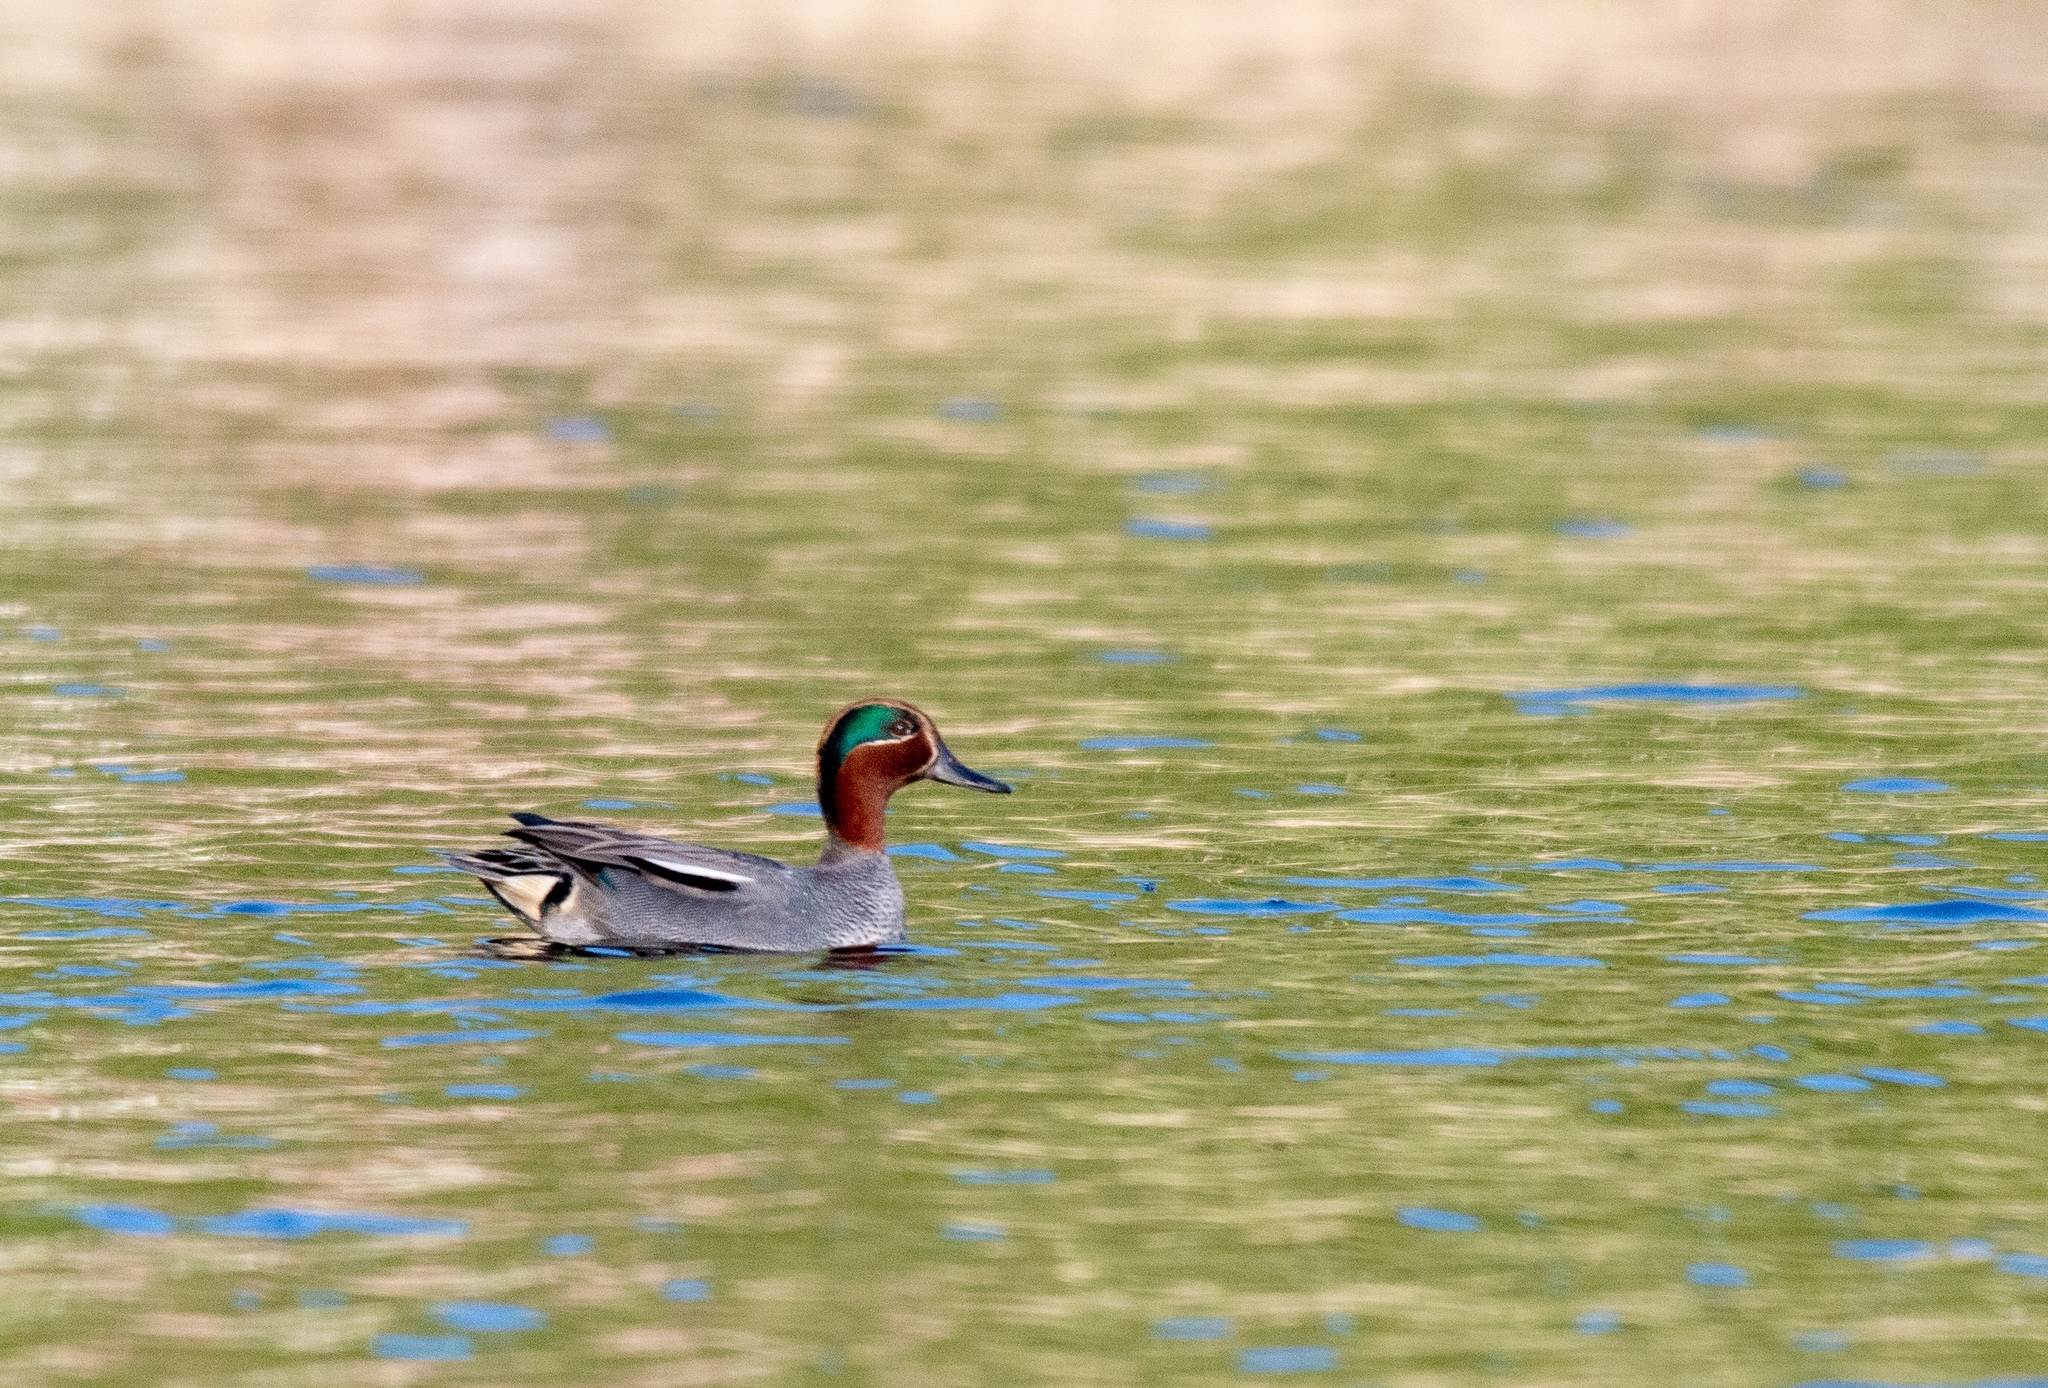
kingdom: Animalia
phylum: Chordata
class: Aves
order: Anseriformes
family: Anatidae
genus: Anas
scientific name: Anas crecca
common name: Eurasian teal
